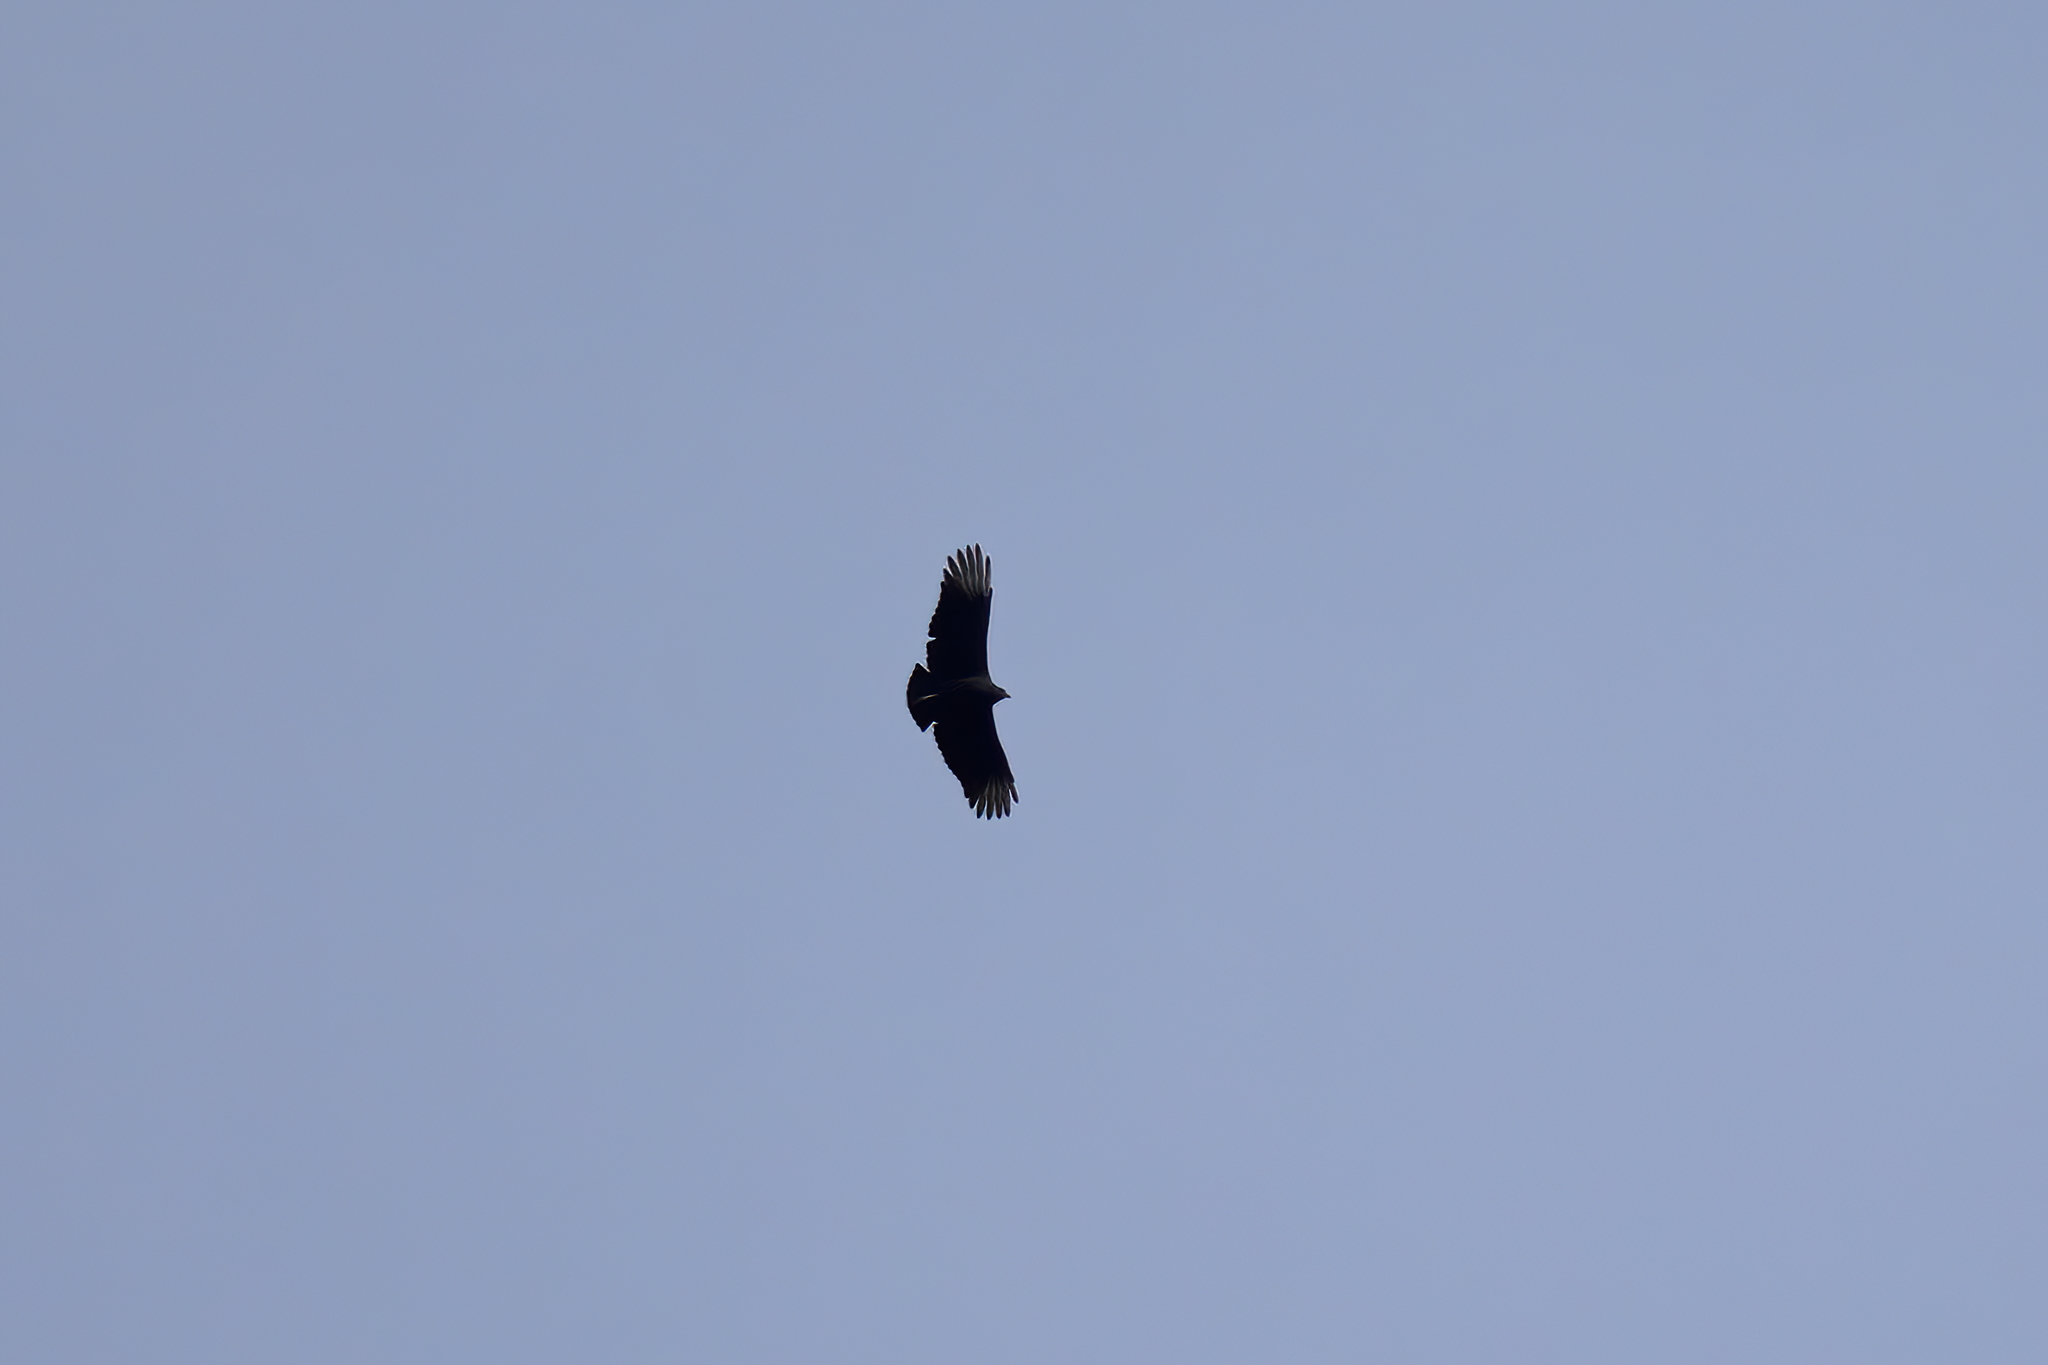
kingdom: Animalia
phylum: Chordata
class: Aves
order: Accipitriformes
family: Cathartidae
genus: Coragyps
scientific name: Coragyps atratus
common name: Black vulture
